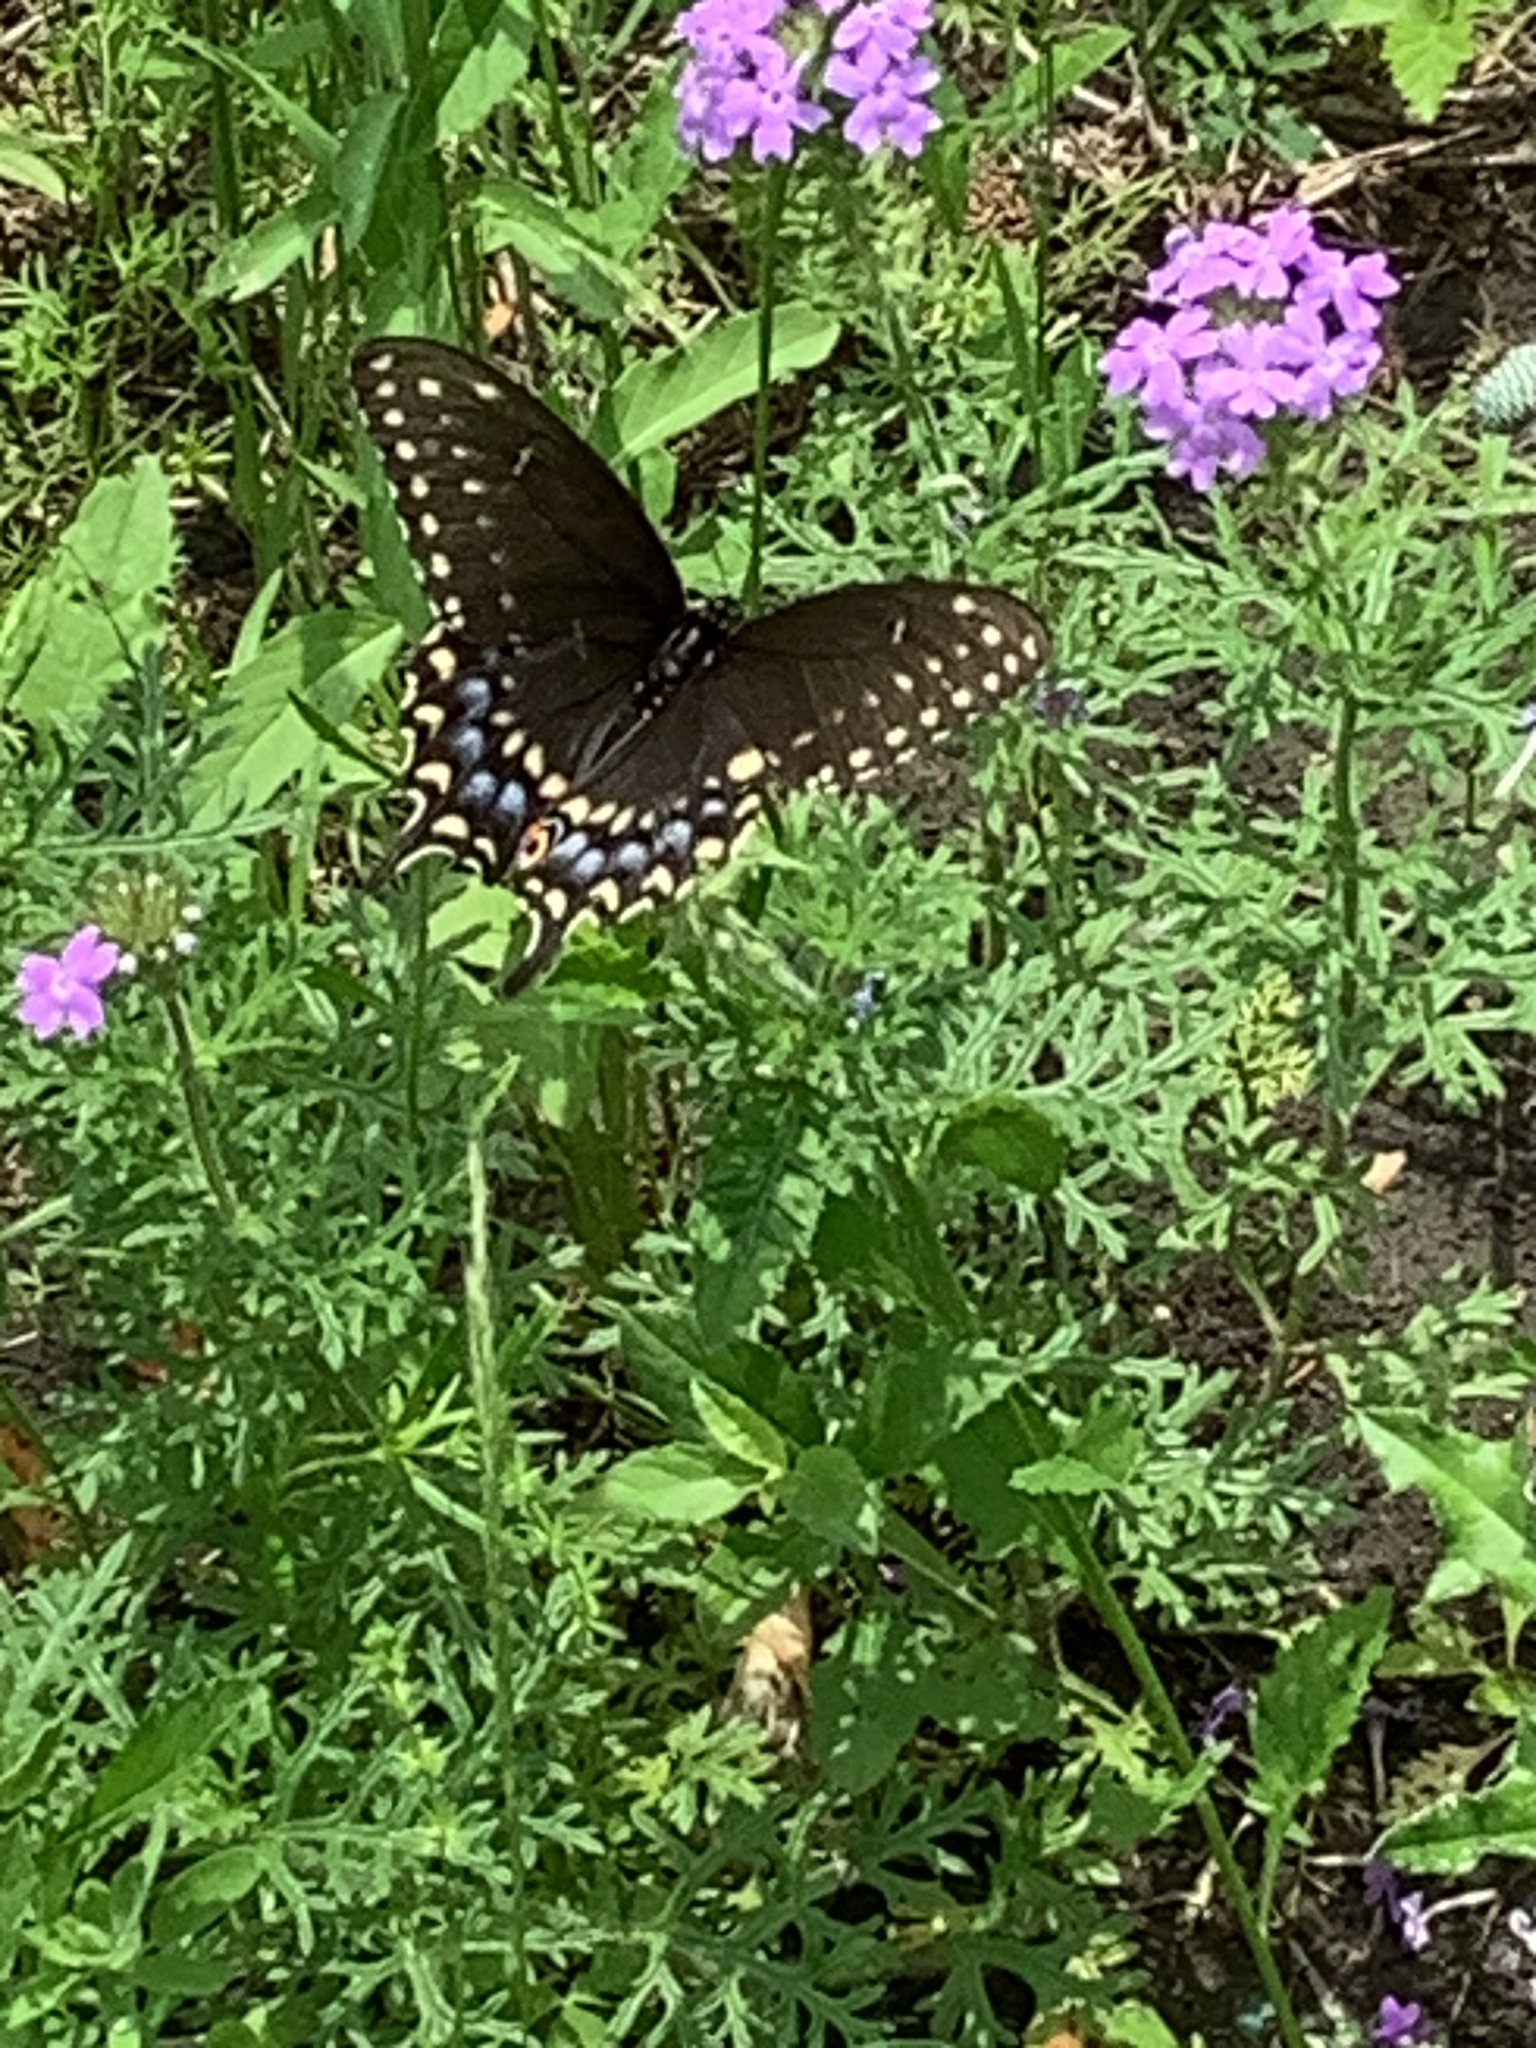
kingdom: Animalia
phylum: Arthropoda
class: Insecta
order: Lepidoptera
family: Papilionidae
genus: Papilio
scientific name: Papilio polyxenes
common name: Black swallowtail
